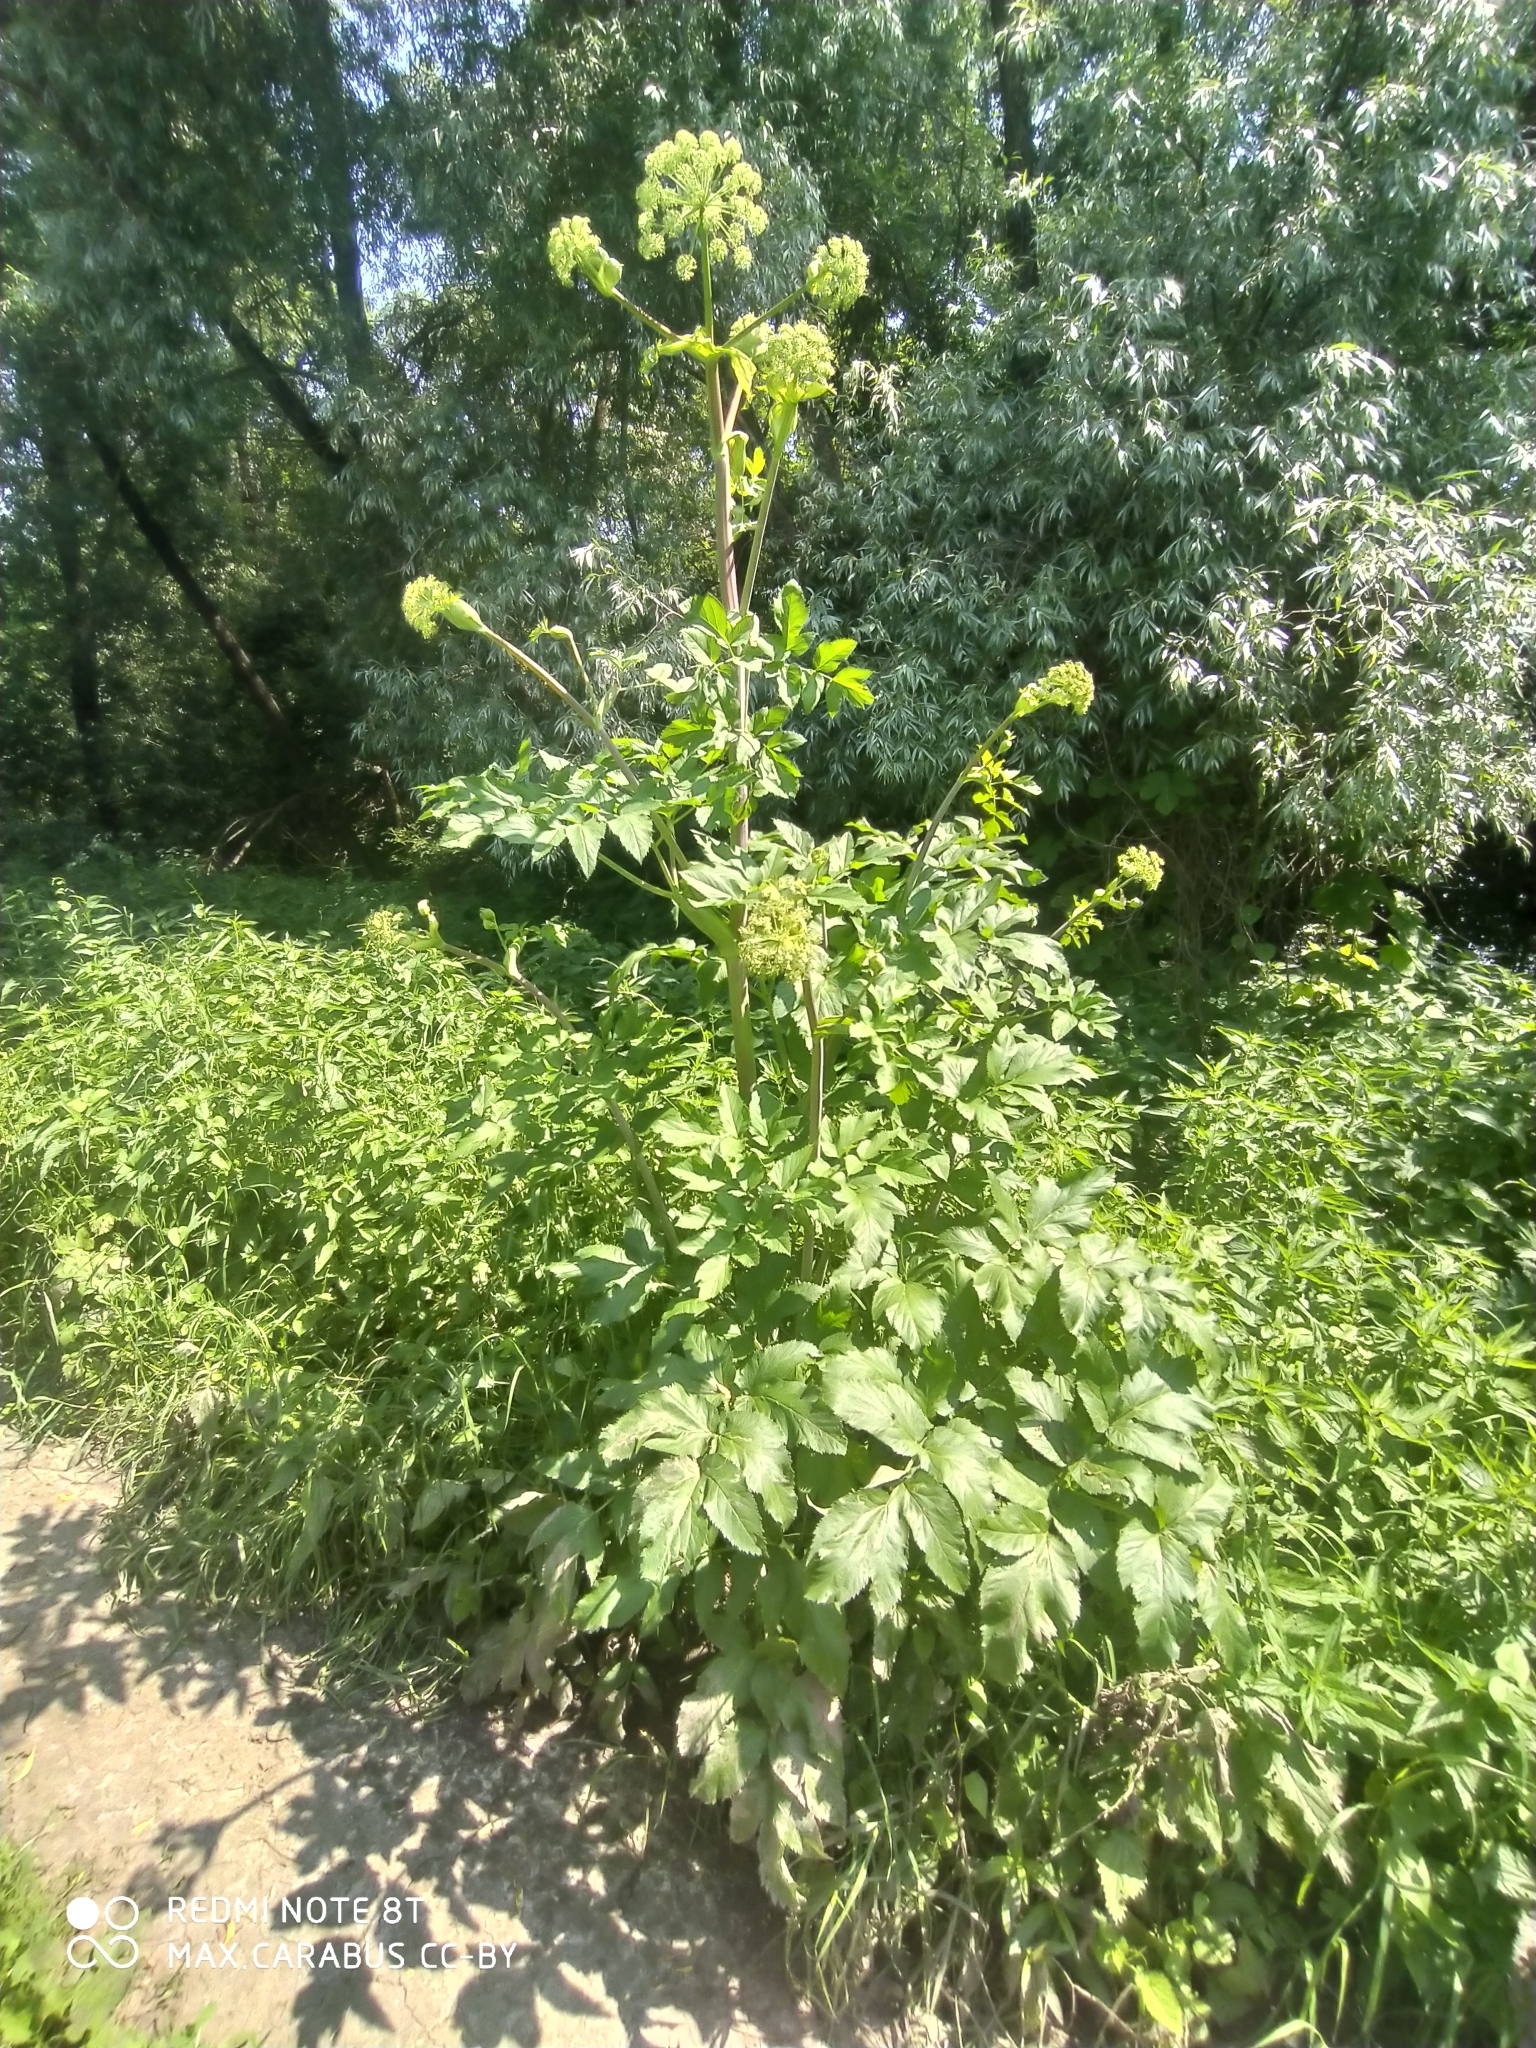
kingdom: Plantae
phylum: Tracheophyta
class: Magnoliopsida
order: Apiales
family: Apiaceae
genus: Angelica
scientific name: Angelica archangelica
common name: Garden angelica
